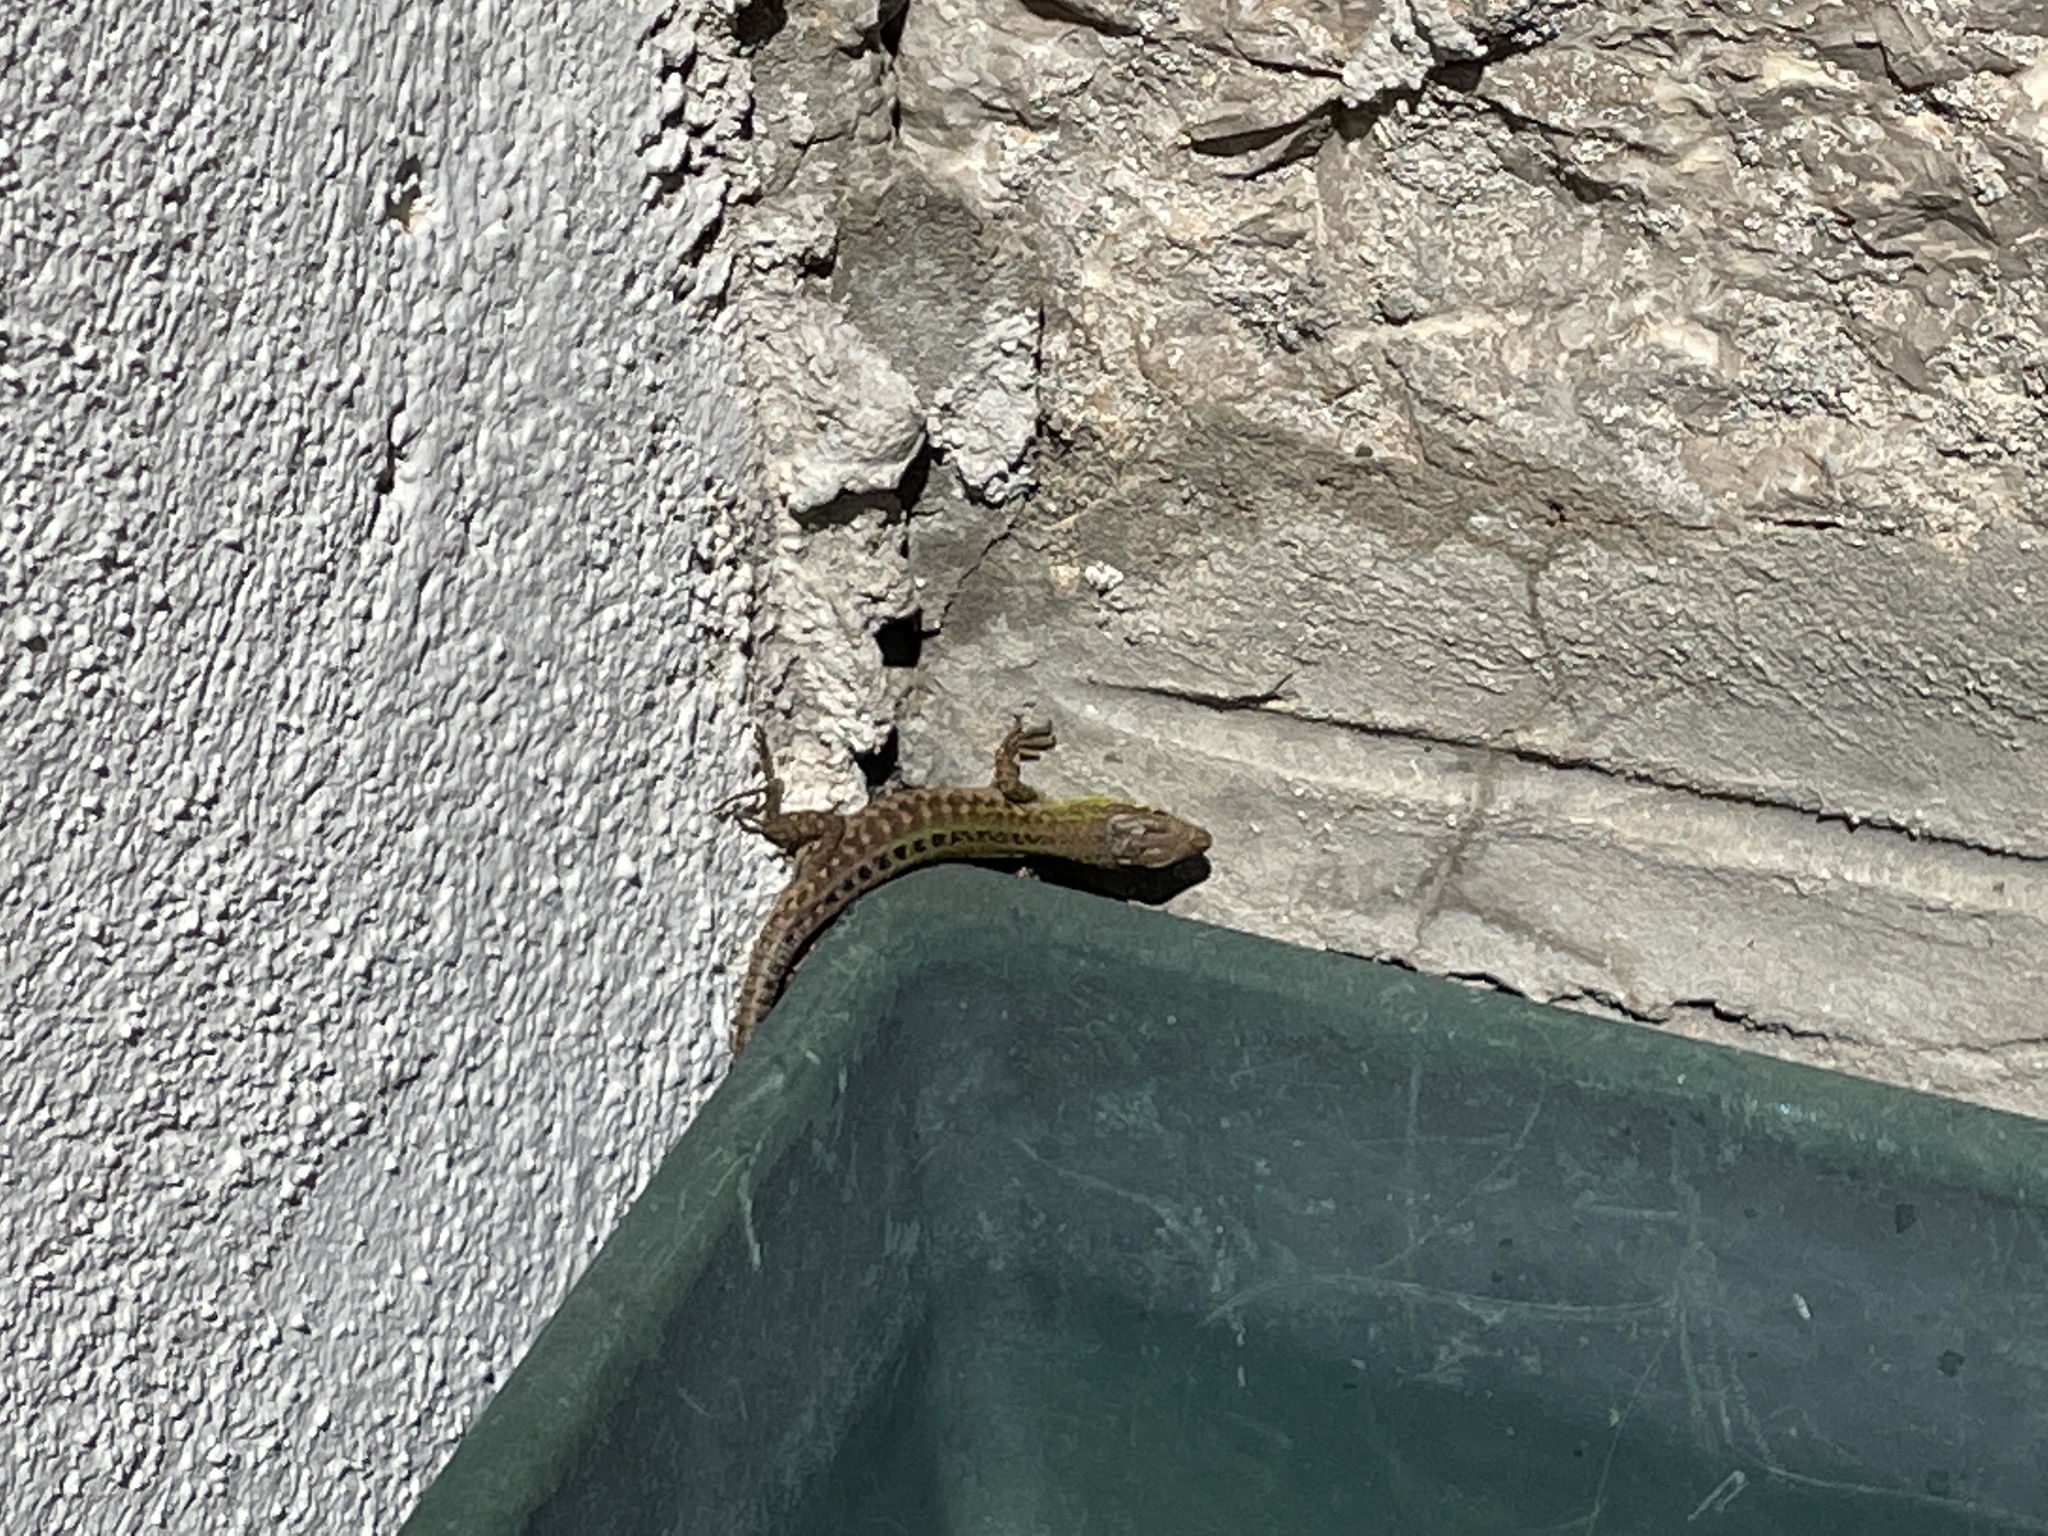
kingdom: Animalia
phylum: Chordata
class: Squamata
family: Lacertidae
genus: Podarcis
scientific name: Podarcis siculus
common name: Italian wall lizard
